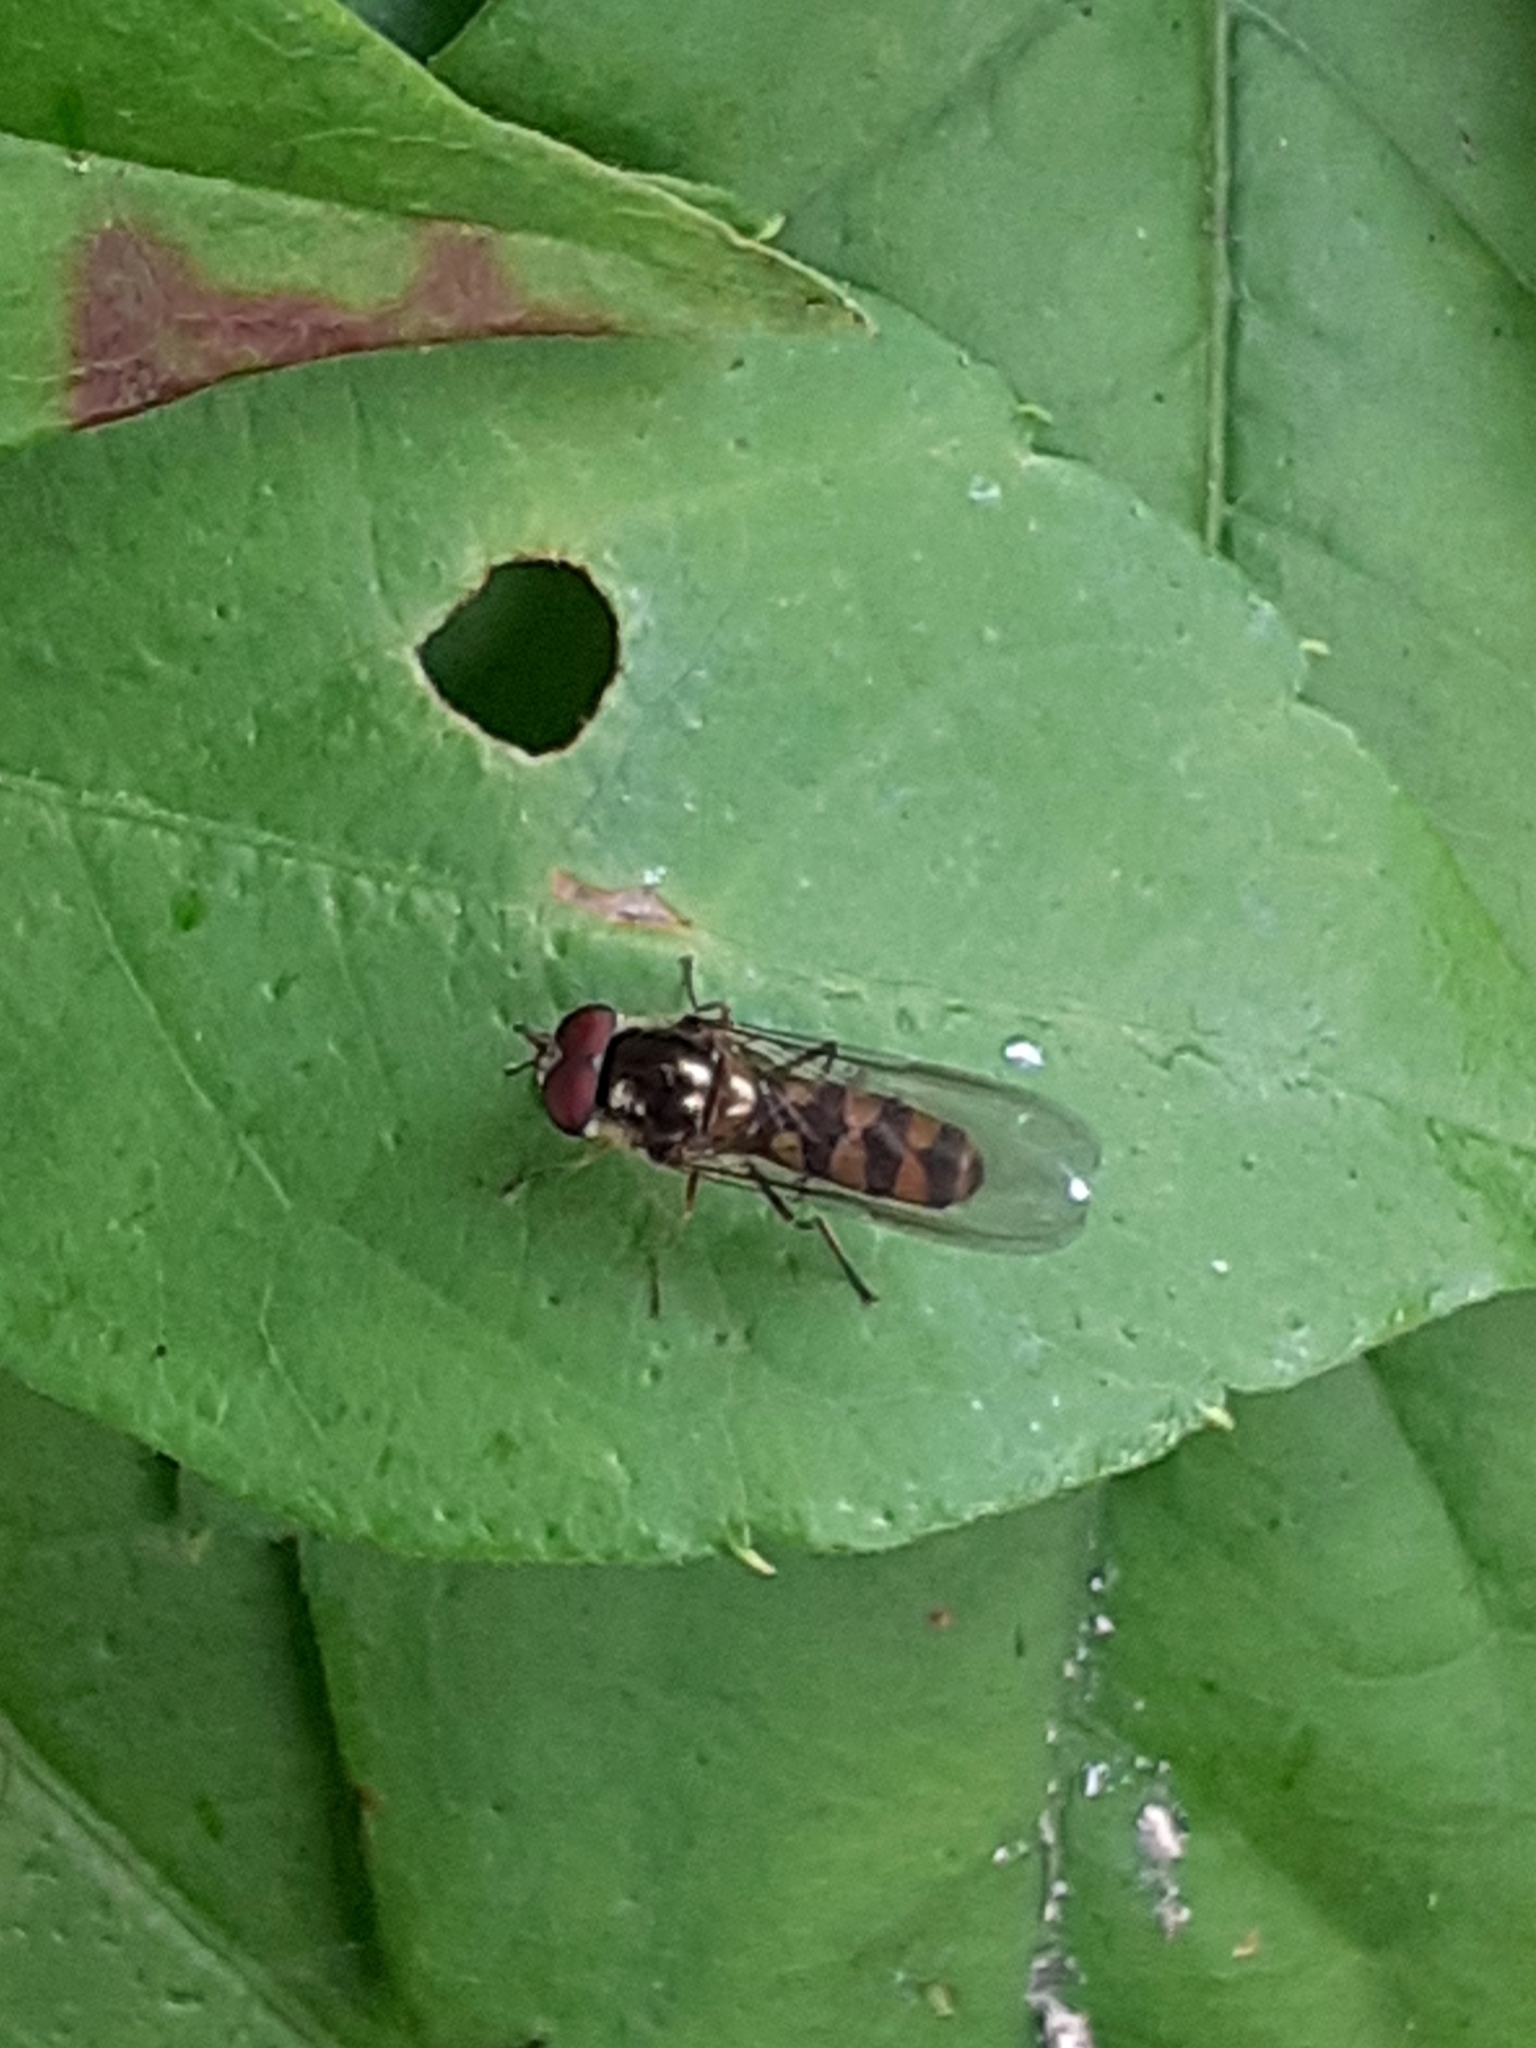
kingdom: Animalia
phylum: Arthropoda
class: Insecta
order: Diptera
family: Syrphidae
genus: Meliscaeva
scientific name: Meliscaeva auricollis
